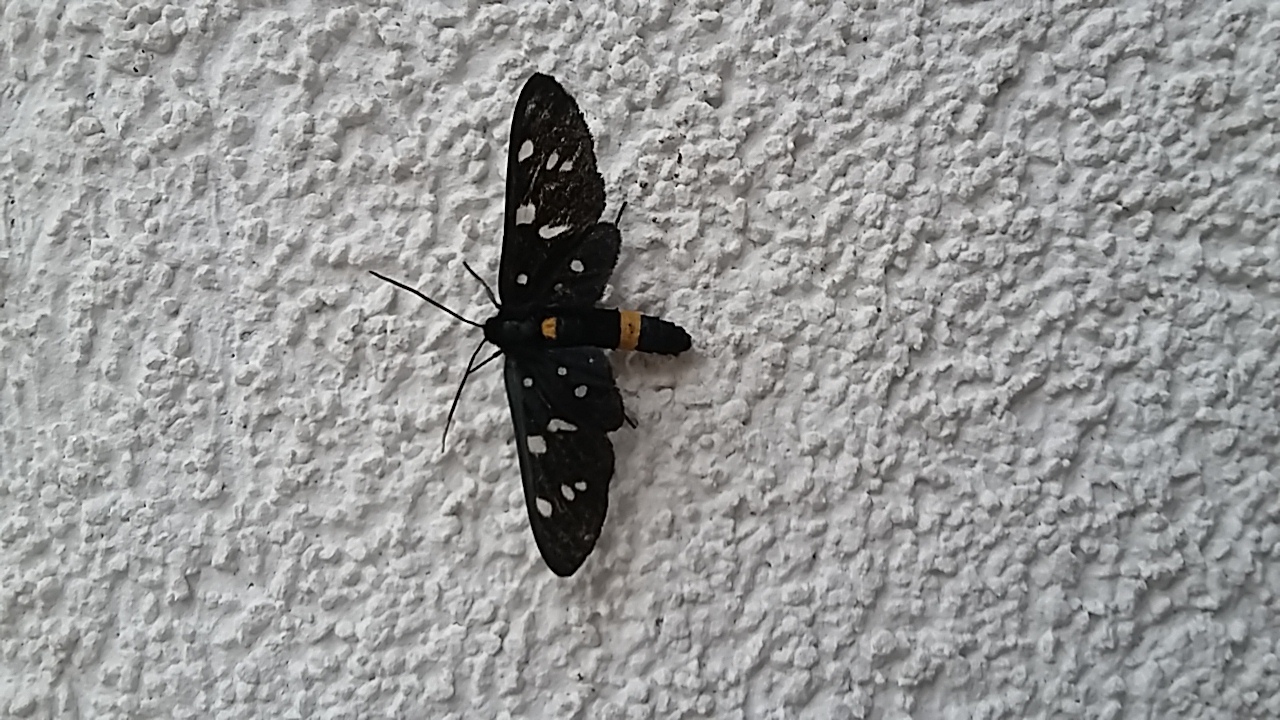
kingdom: Animalia
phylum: Arthropoda
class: Insecta
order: Lepidoptera
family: Erebidae
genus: Amata
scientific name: Amata phegea
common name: Nine-spotted
